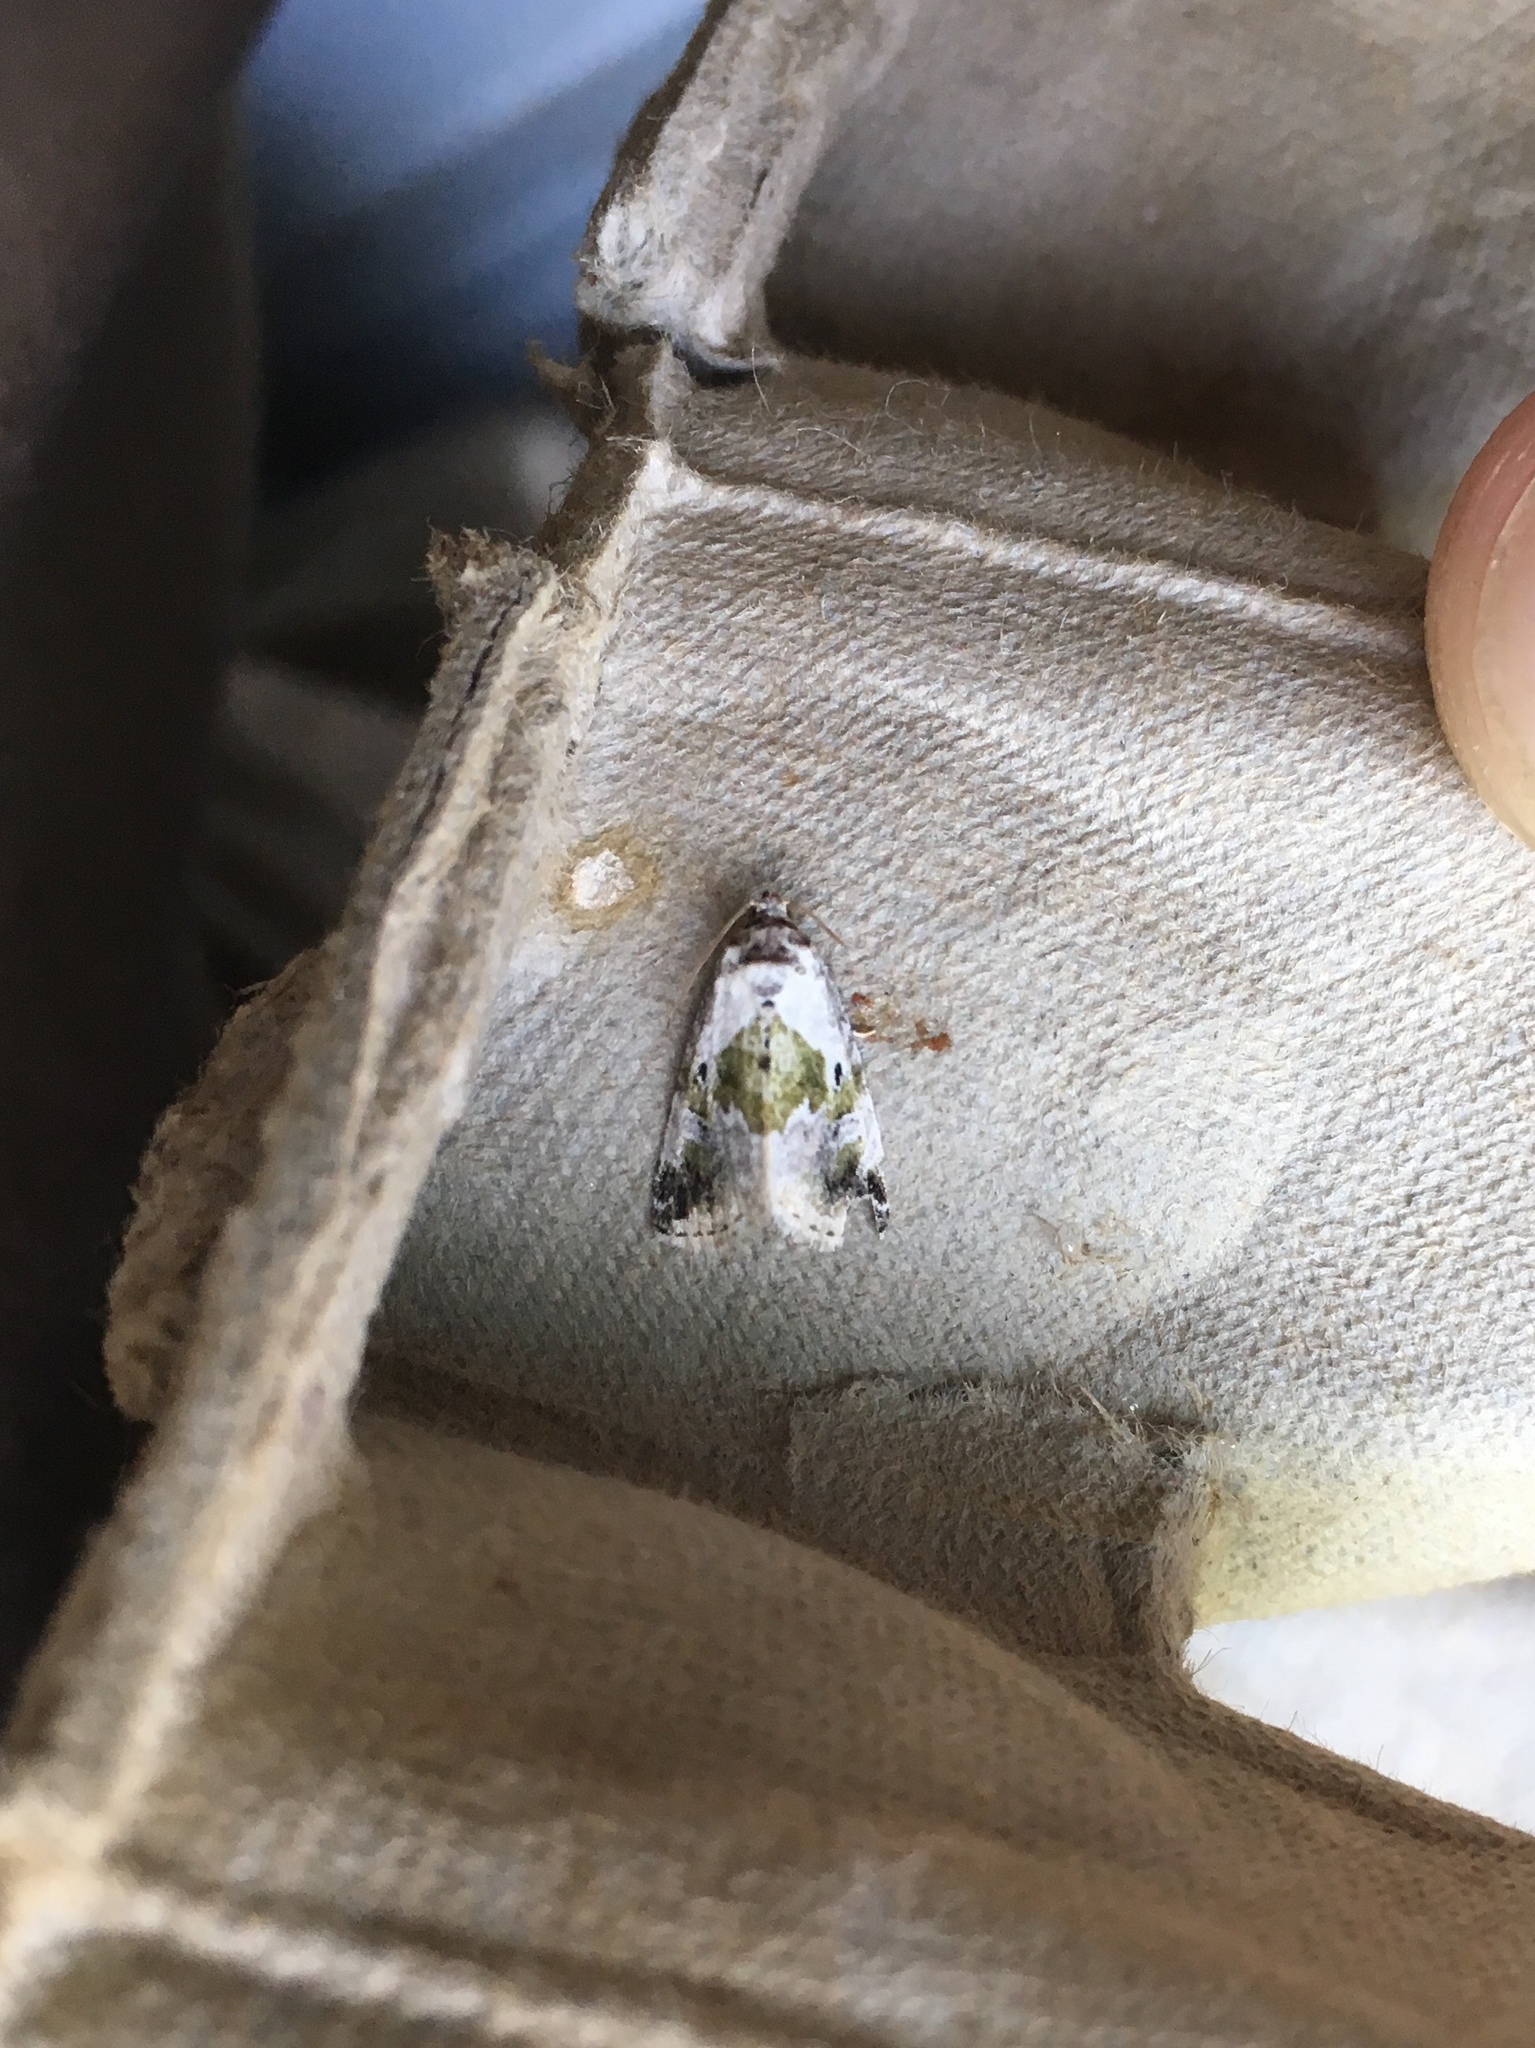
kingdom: Animalia
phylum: Arthropoda
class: Insecta
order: Lepidoptera
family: Noctuidae
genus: Maliattha
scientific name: Maliattha synochitis
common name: Black-dotted glyph
